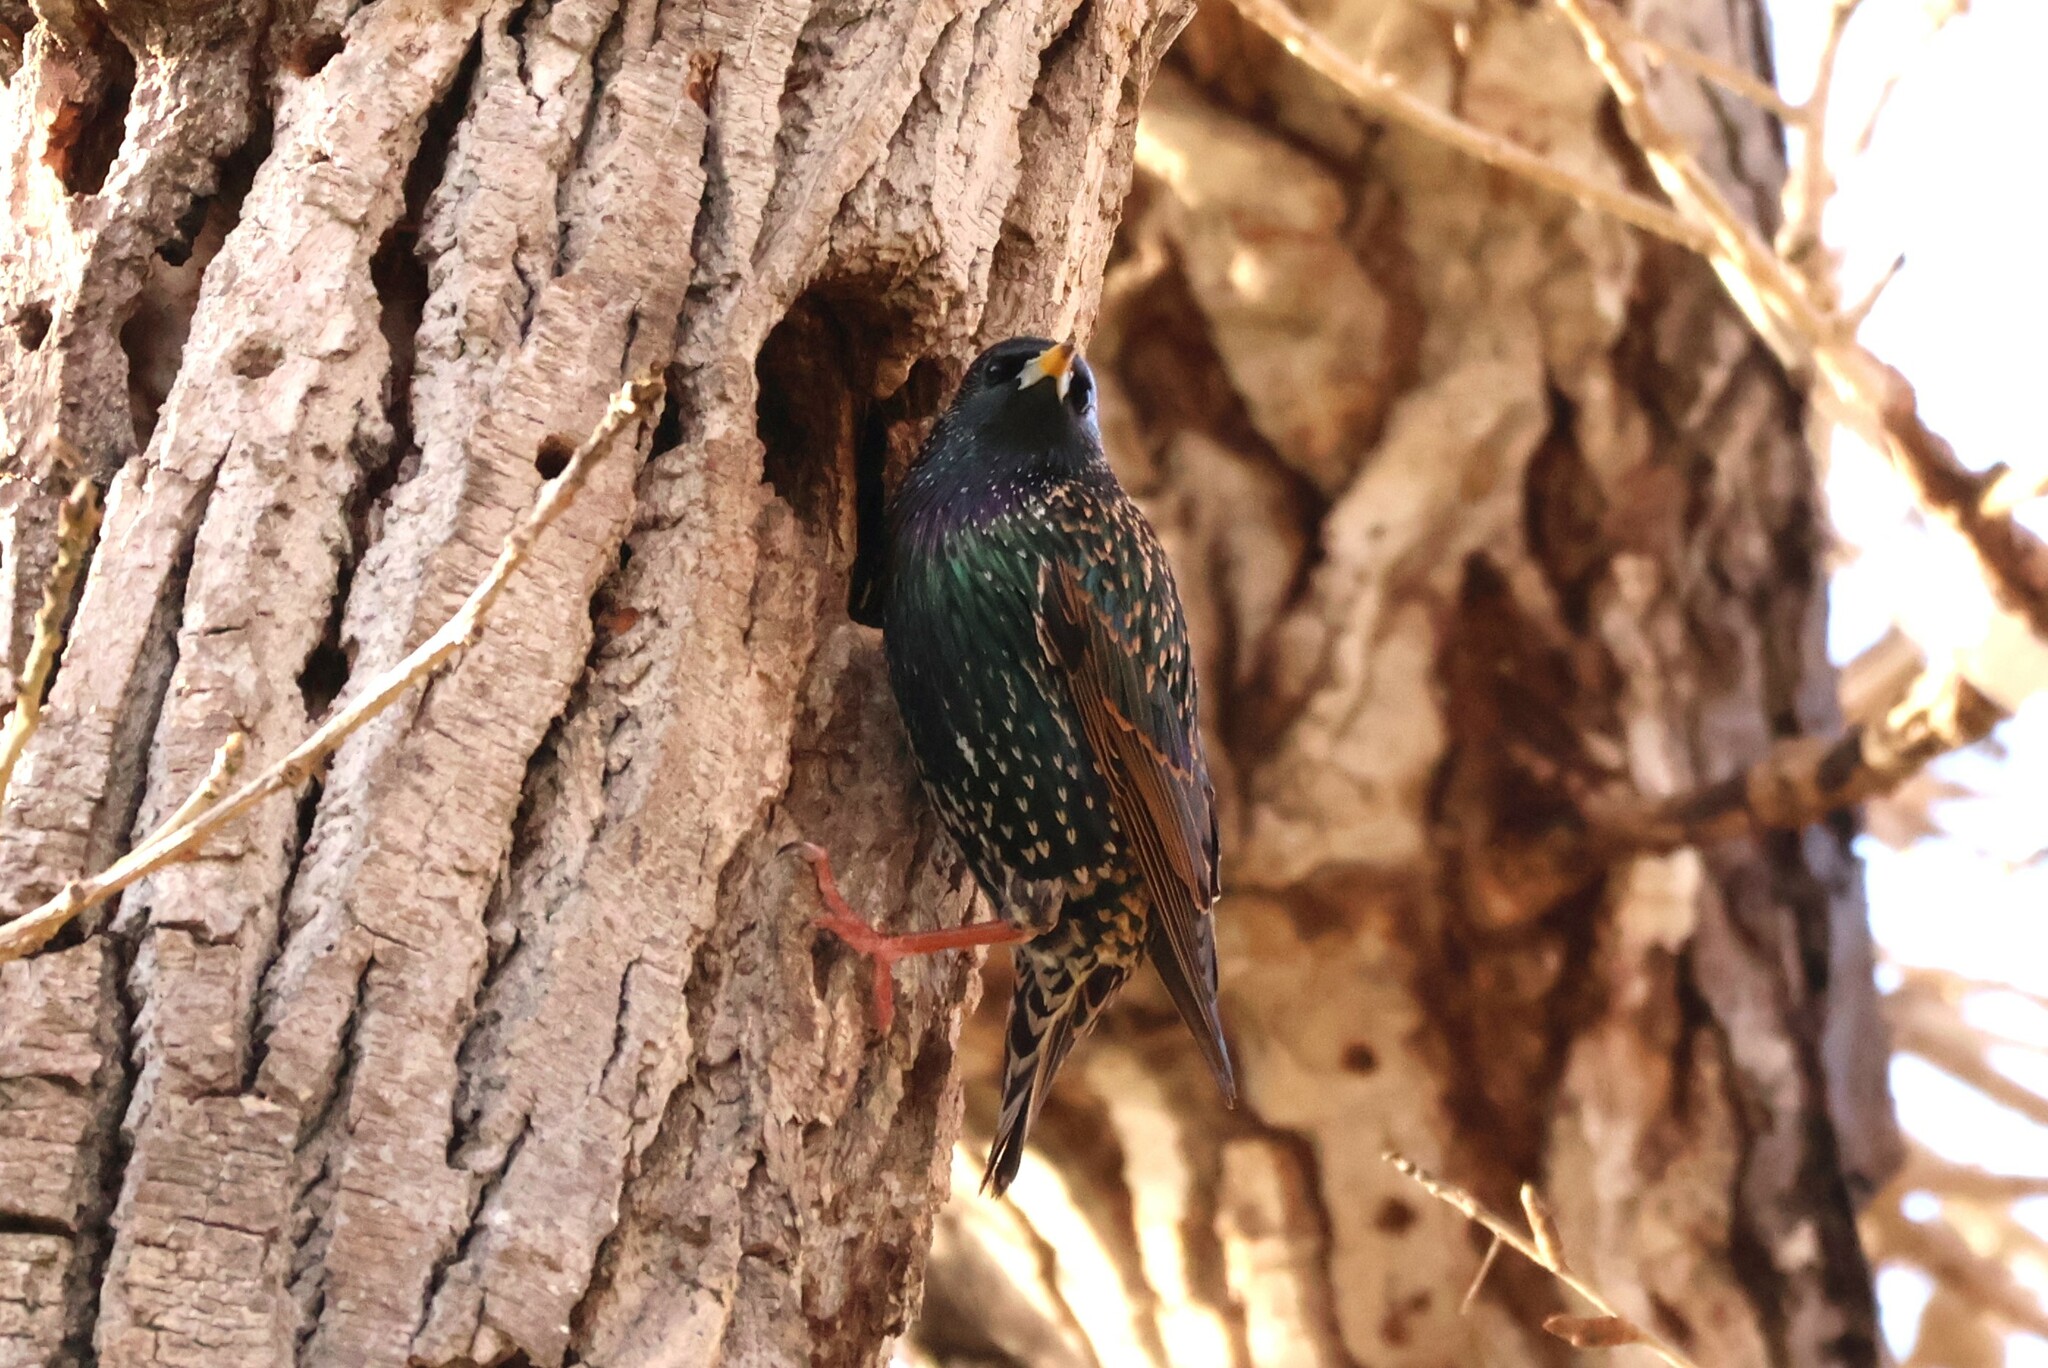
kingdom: Animalia
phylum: Chordata
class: Aves
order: Passeriformes
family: Sturnidae
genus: Sturnus
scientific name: Sturnus vulgaris
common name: Common starling
